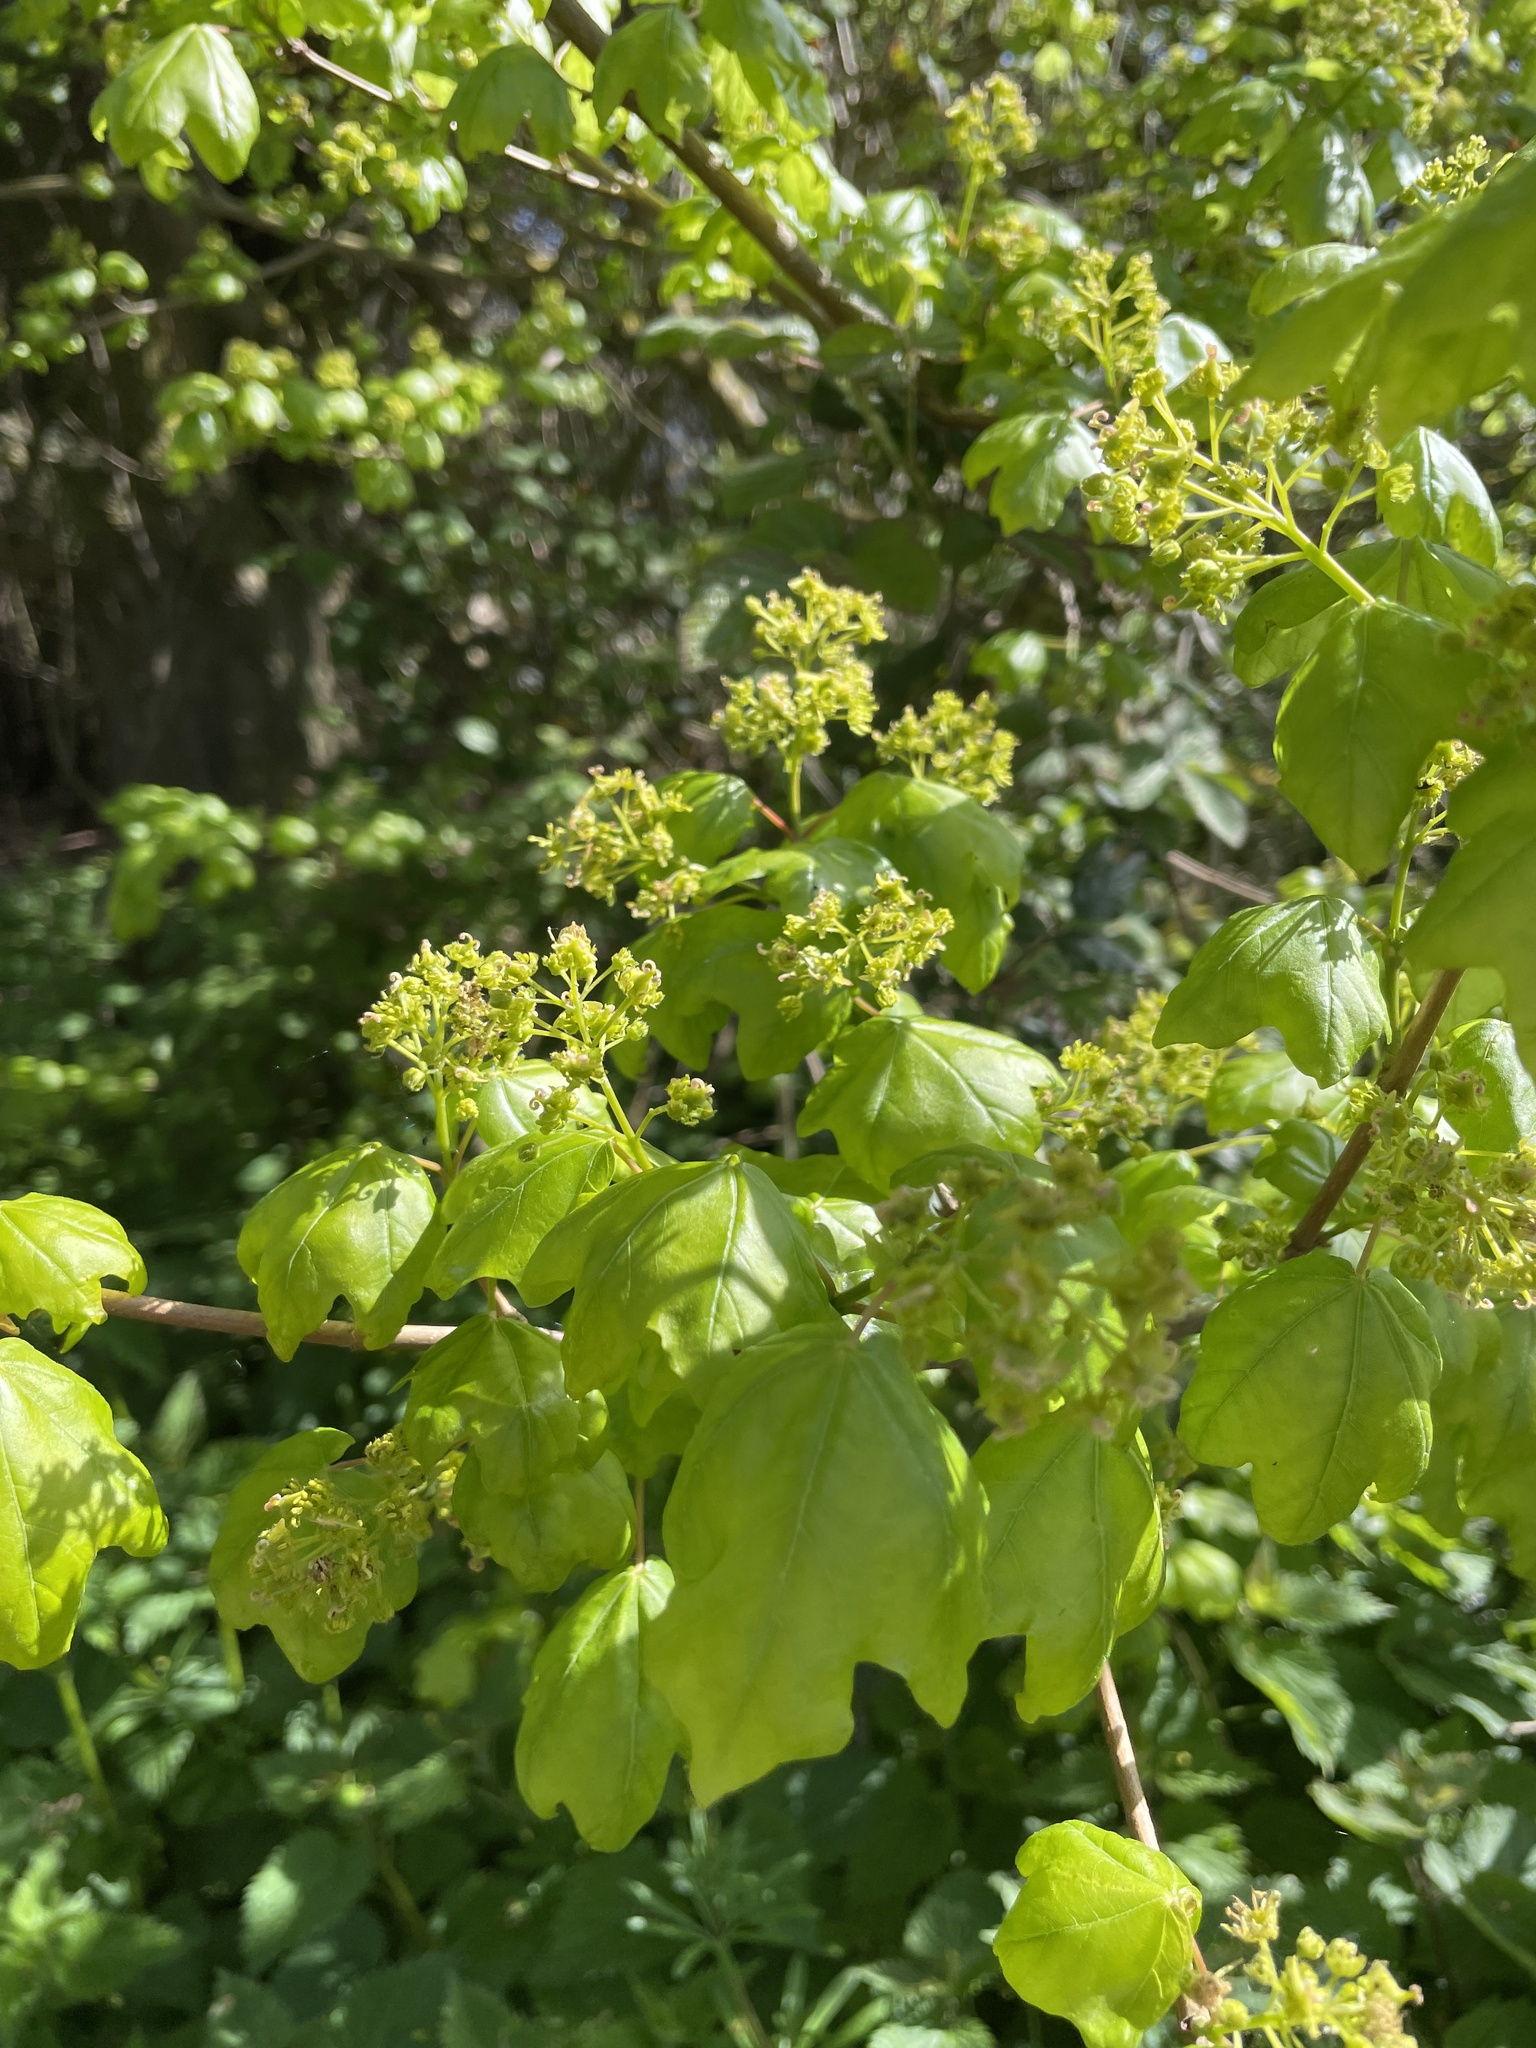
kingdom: Plantae
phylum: Tracheophyta
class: Magnoliopsida
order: Sapindales
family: Sapindaceae
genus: Acer
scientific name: Acer campestre
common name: Field maple
